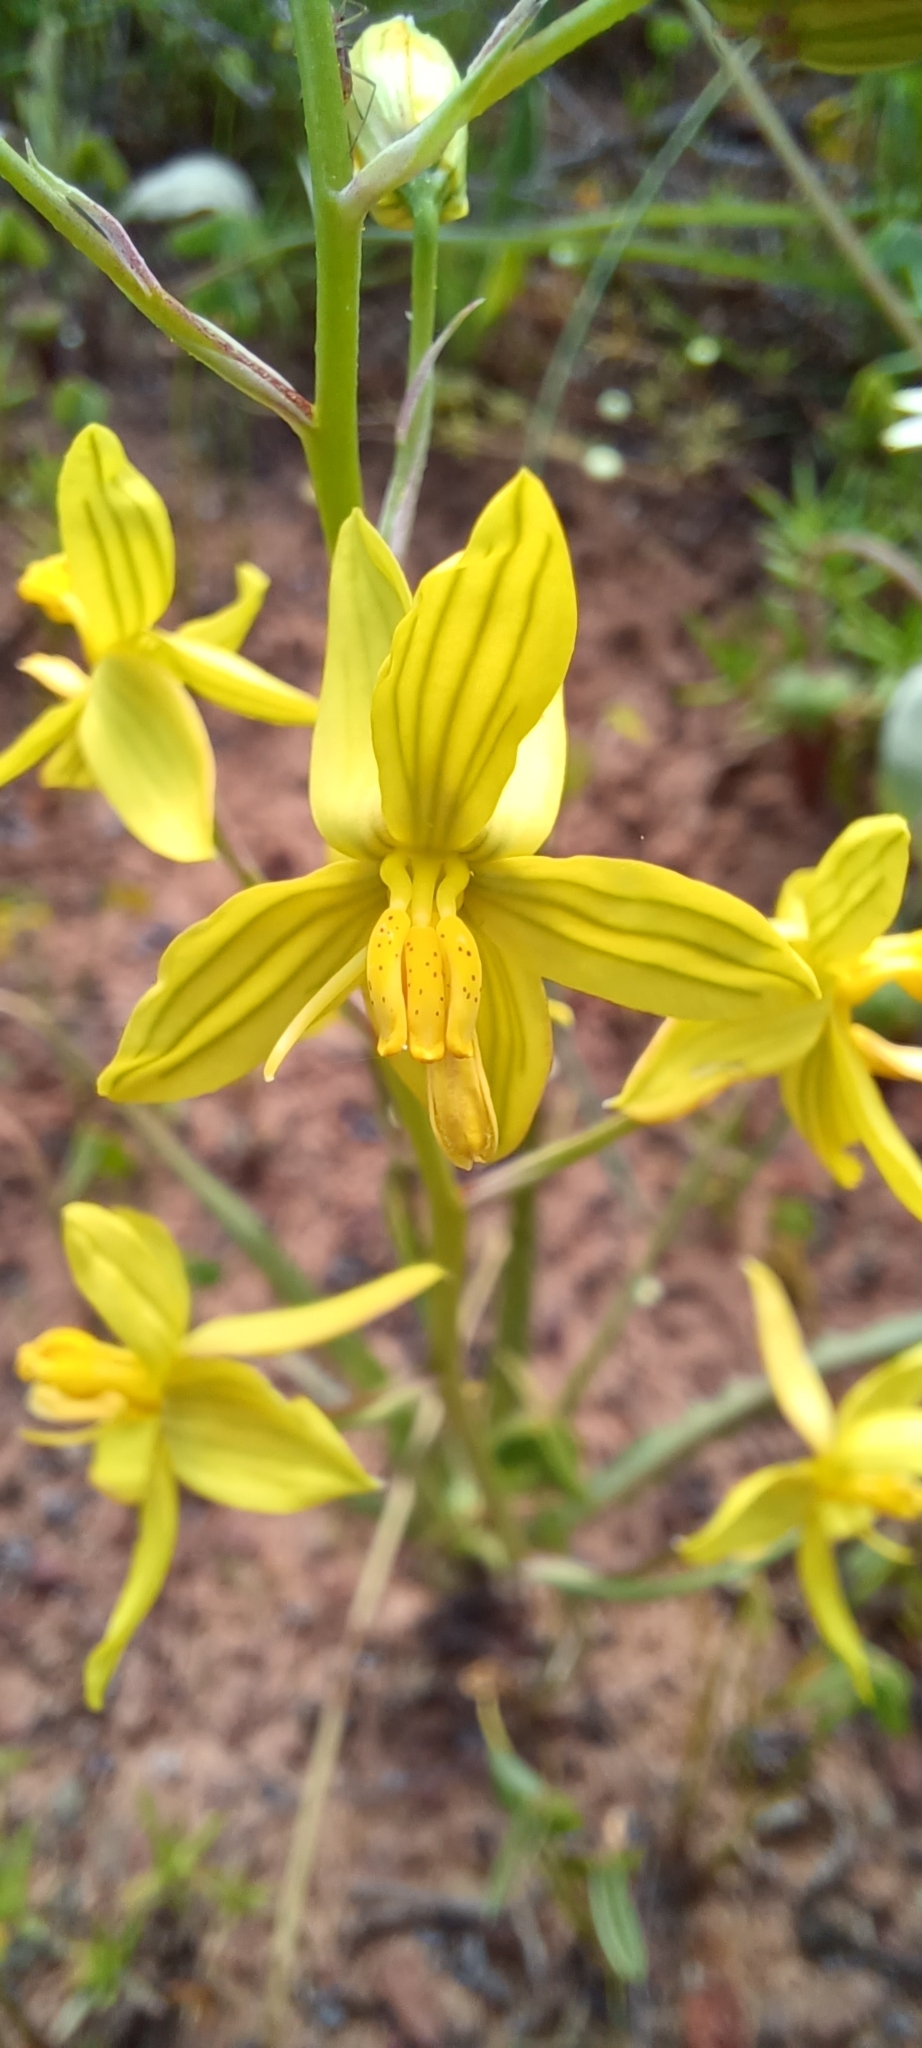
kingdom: Plantae
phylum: Tracheophyta
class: Liliopsida
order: Asparagales
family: Tecophilaeaceae
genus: Cyanella
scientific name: Cyanella lutea
